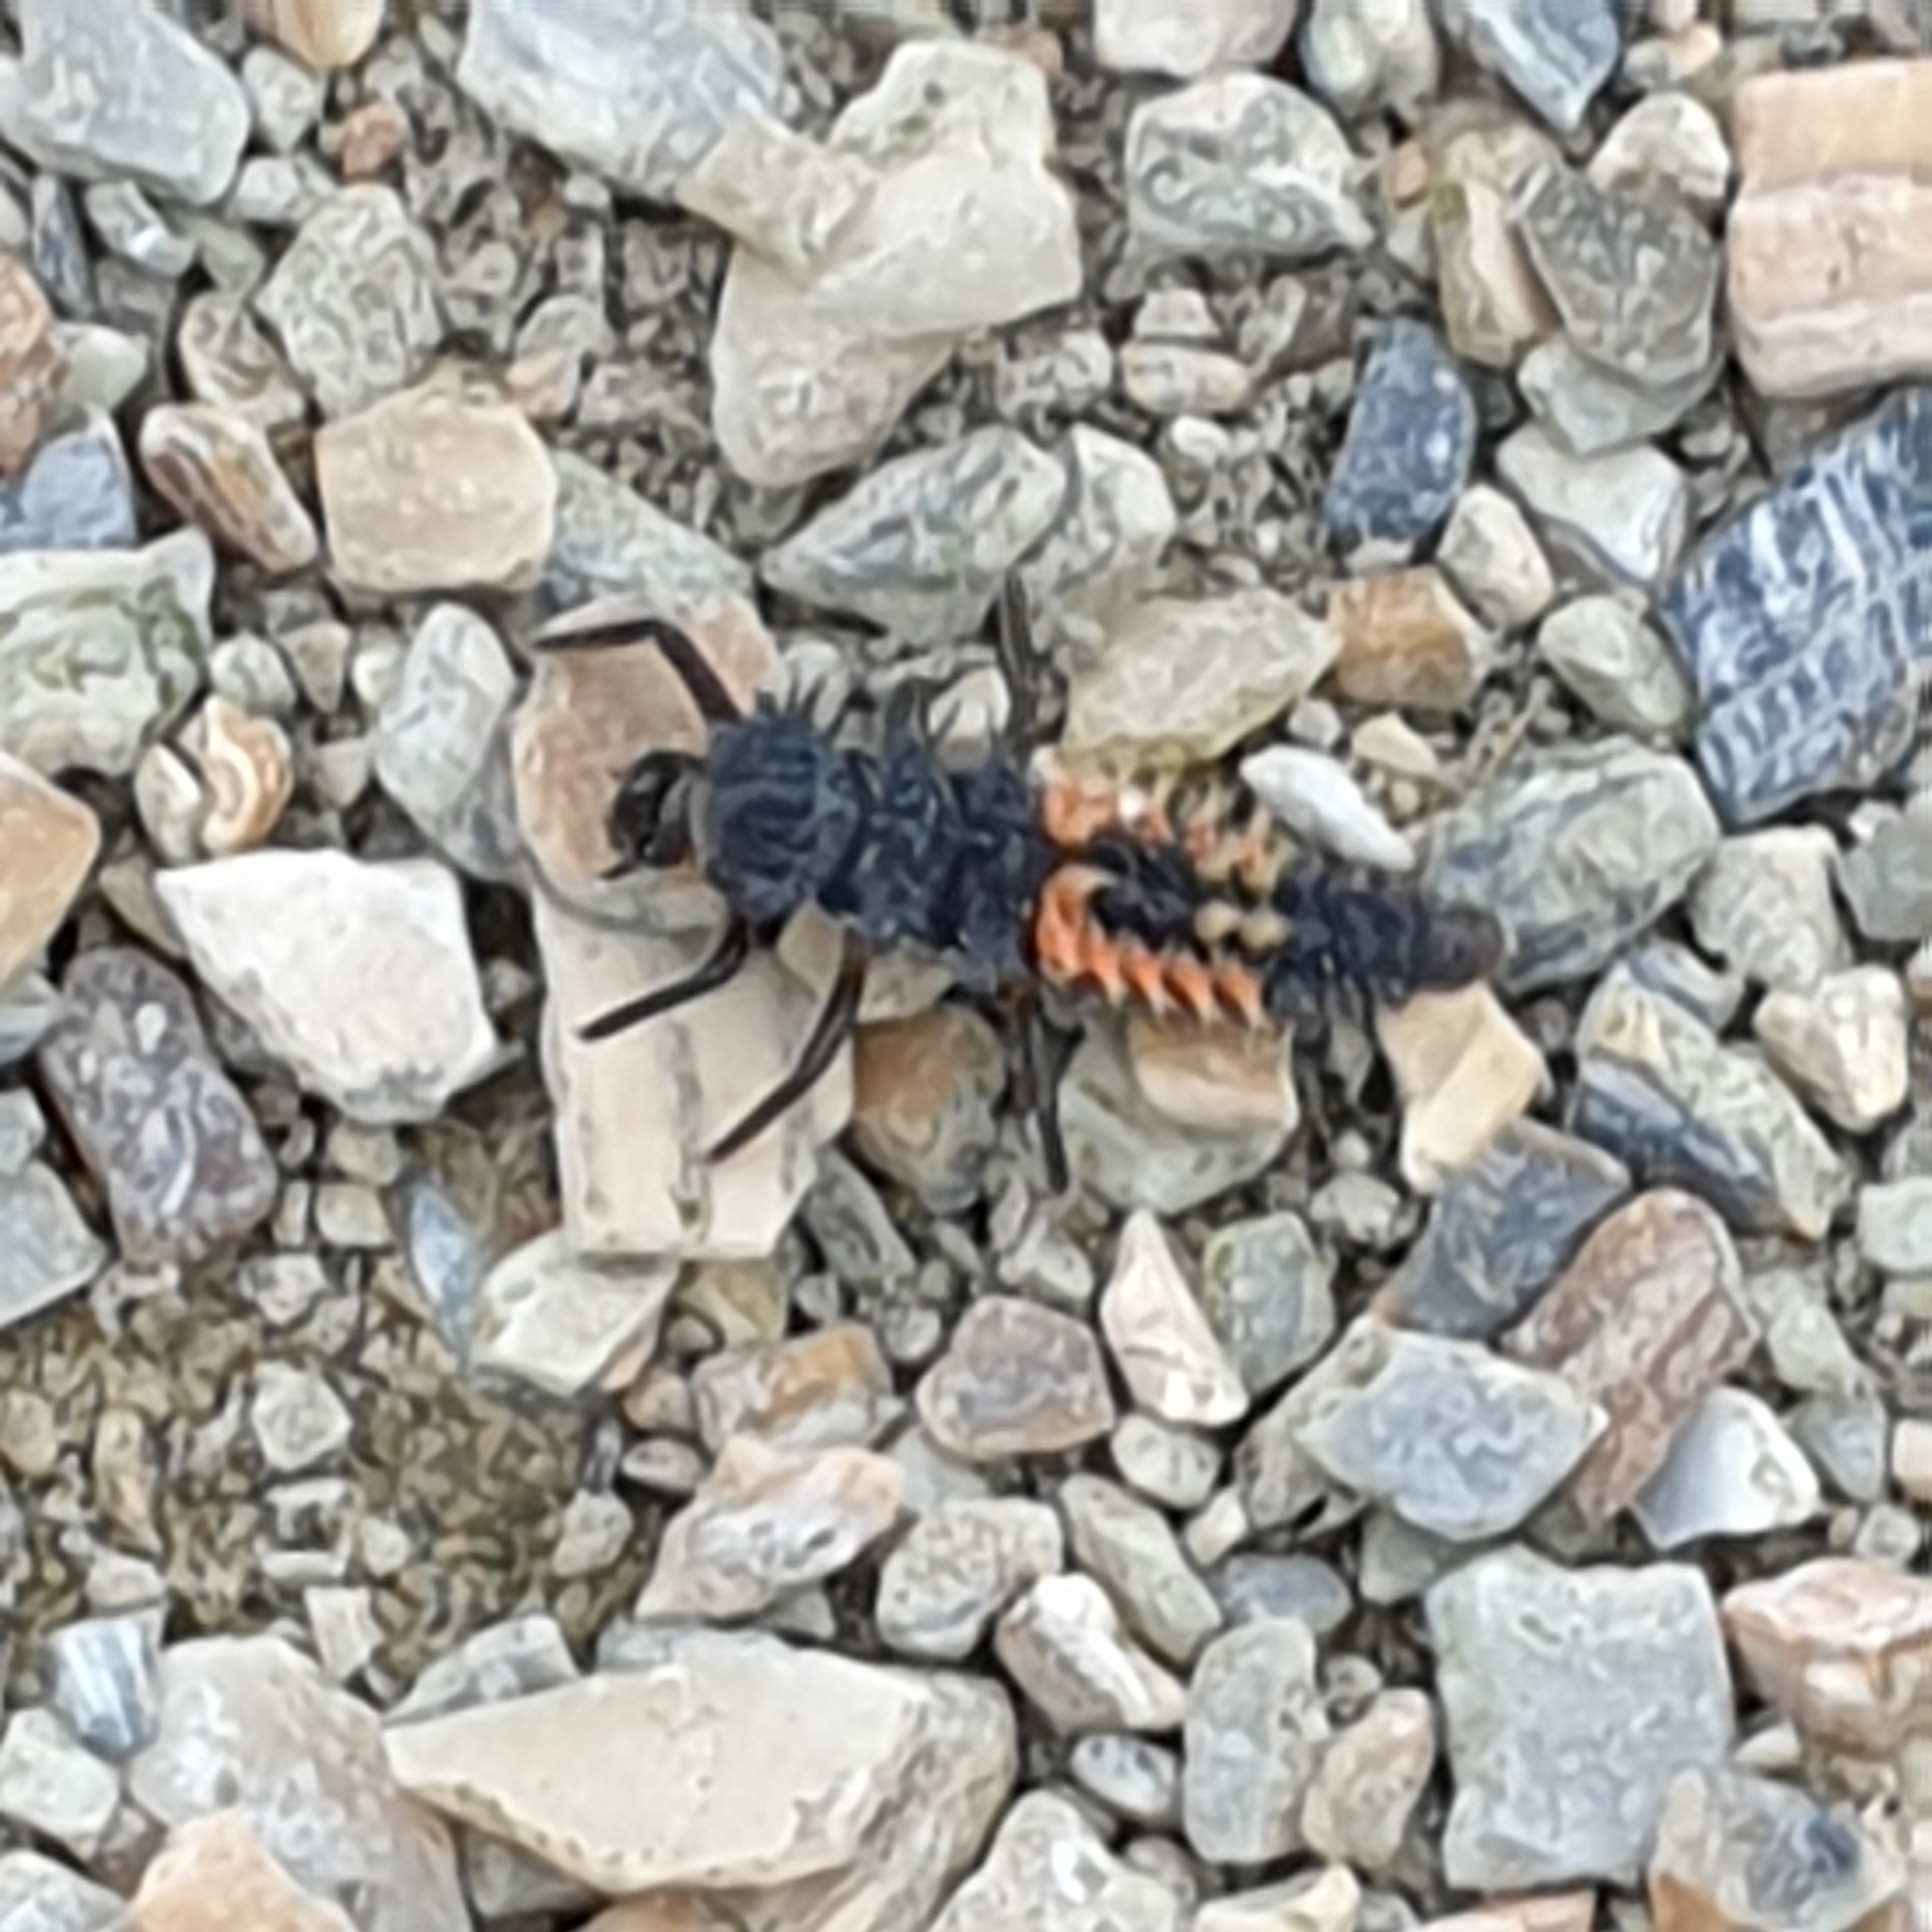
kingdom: Animalia
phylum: Arthropoda
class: Insecta
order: Coleoptera
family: Coccinellidae
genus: Harmonia
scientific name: Harmonia axyridis
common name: Harlequin ladybird
